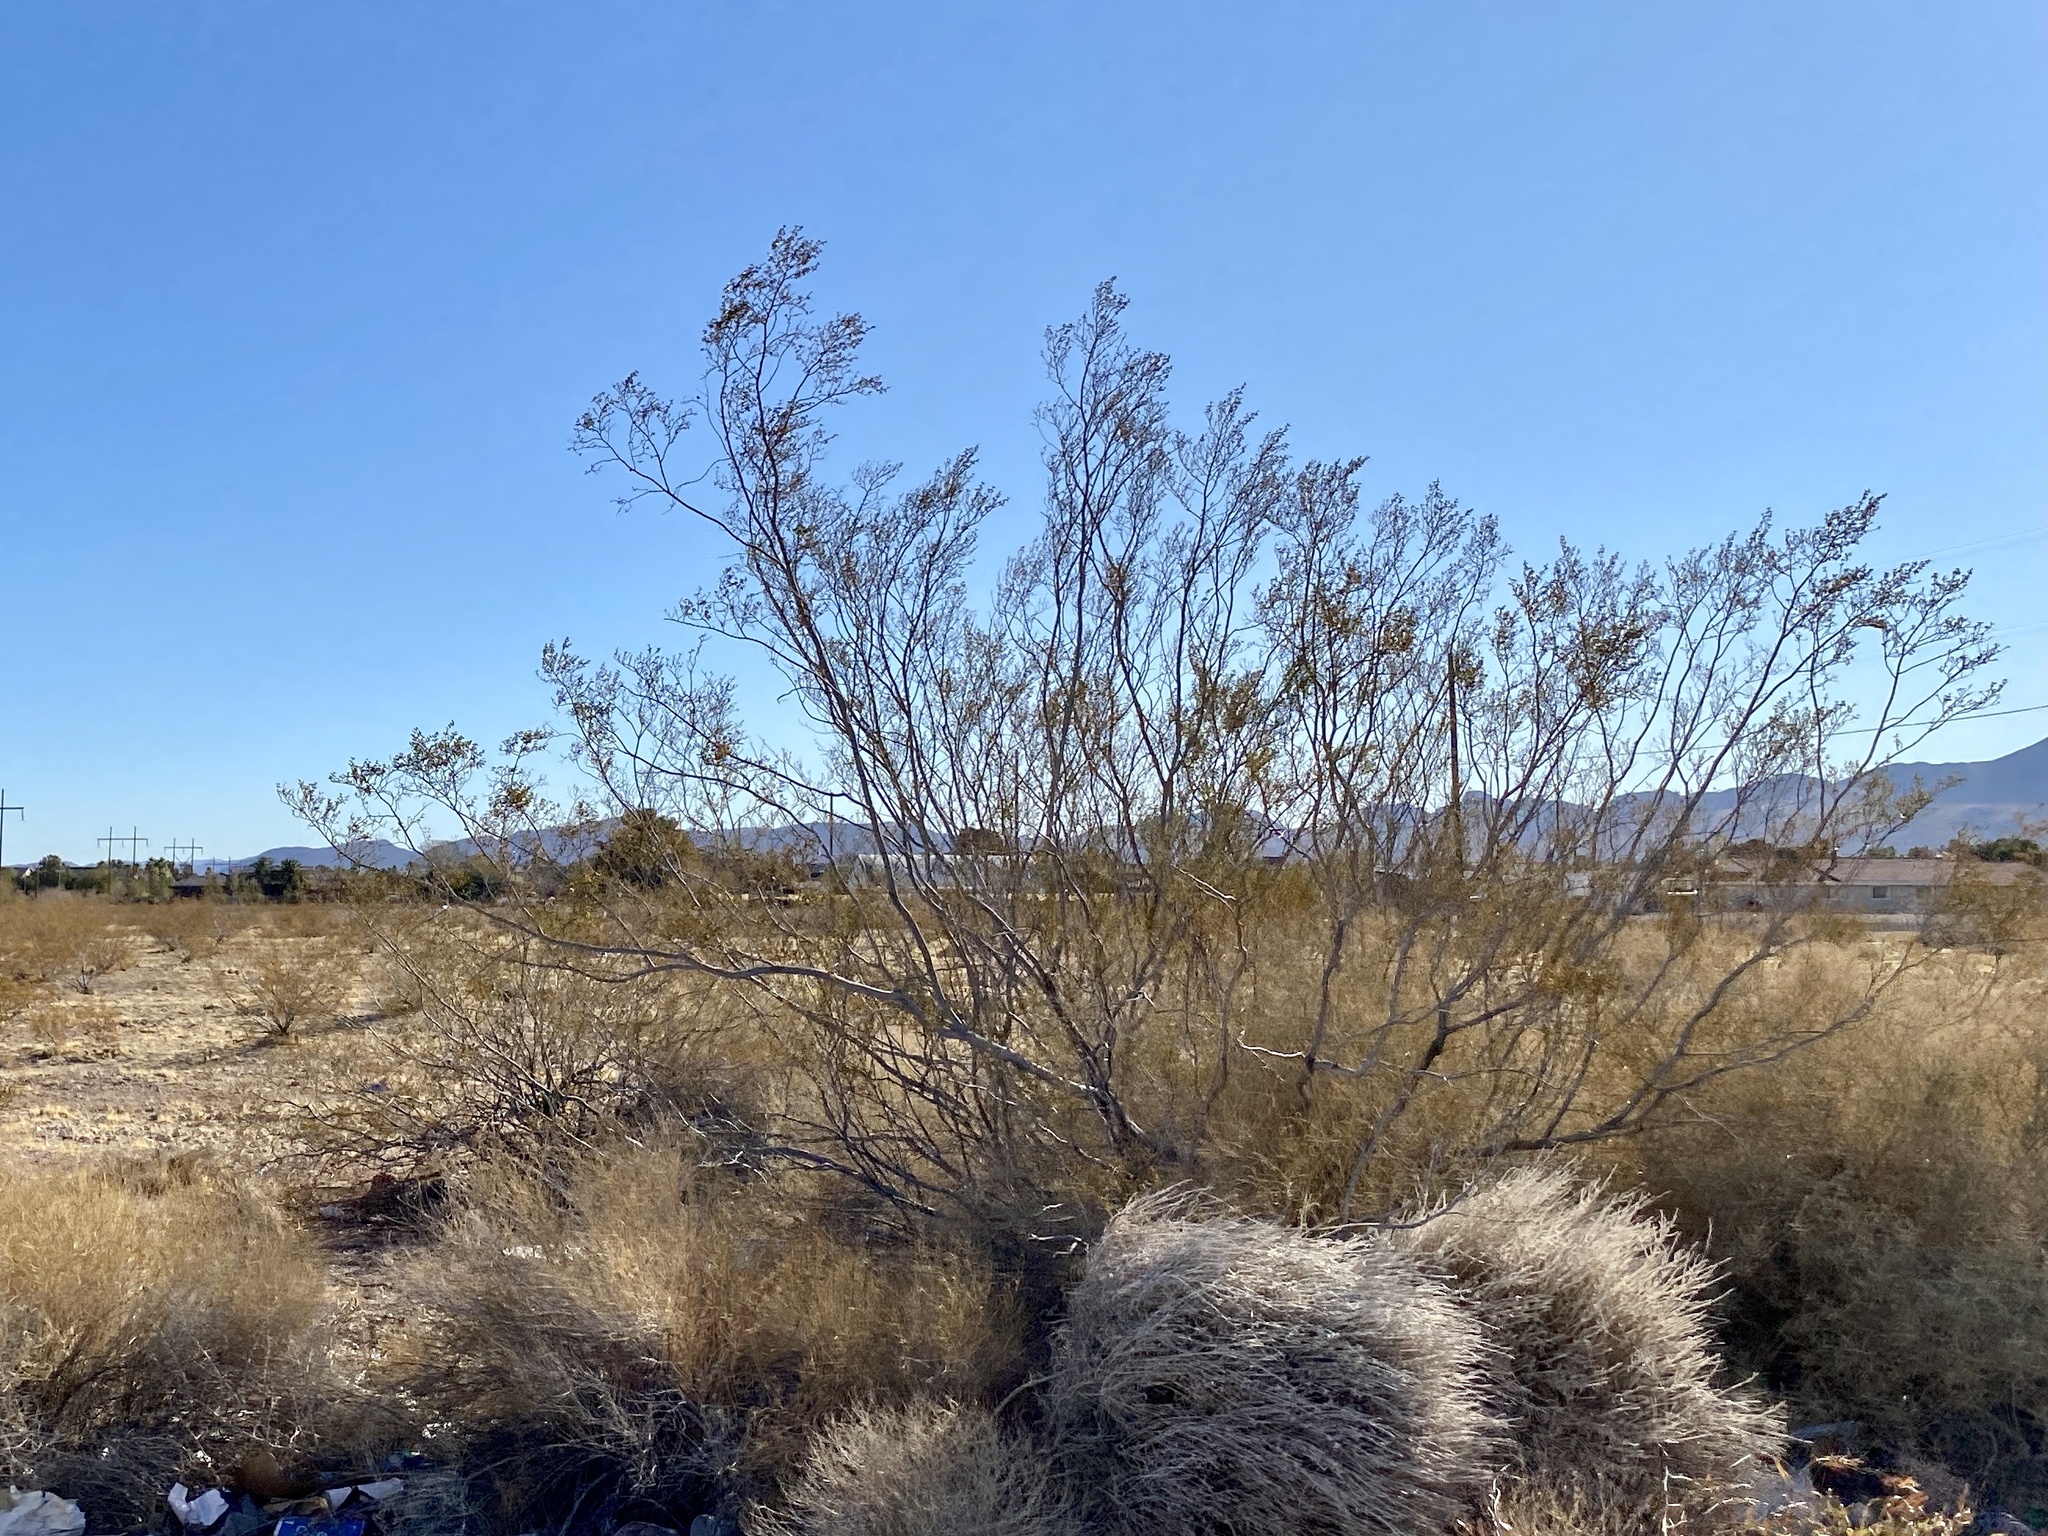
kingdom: Plantae
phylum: Tracheophyta
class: Magnoliopsida
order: Zygophyllales
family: Zygophyllaceae
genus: Larrea
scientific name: Larrea tridentata
